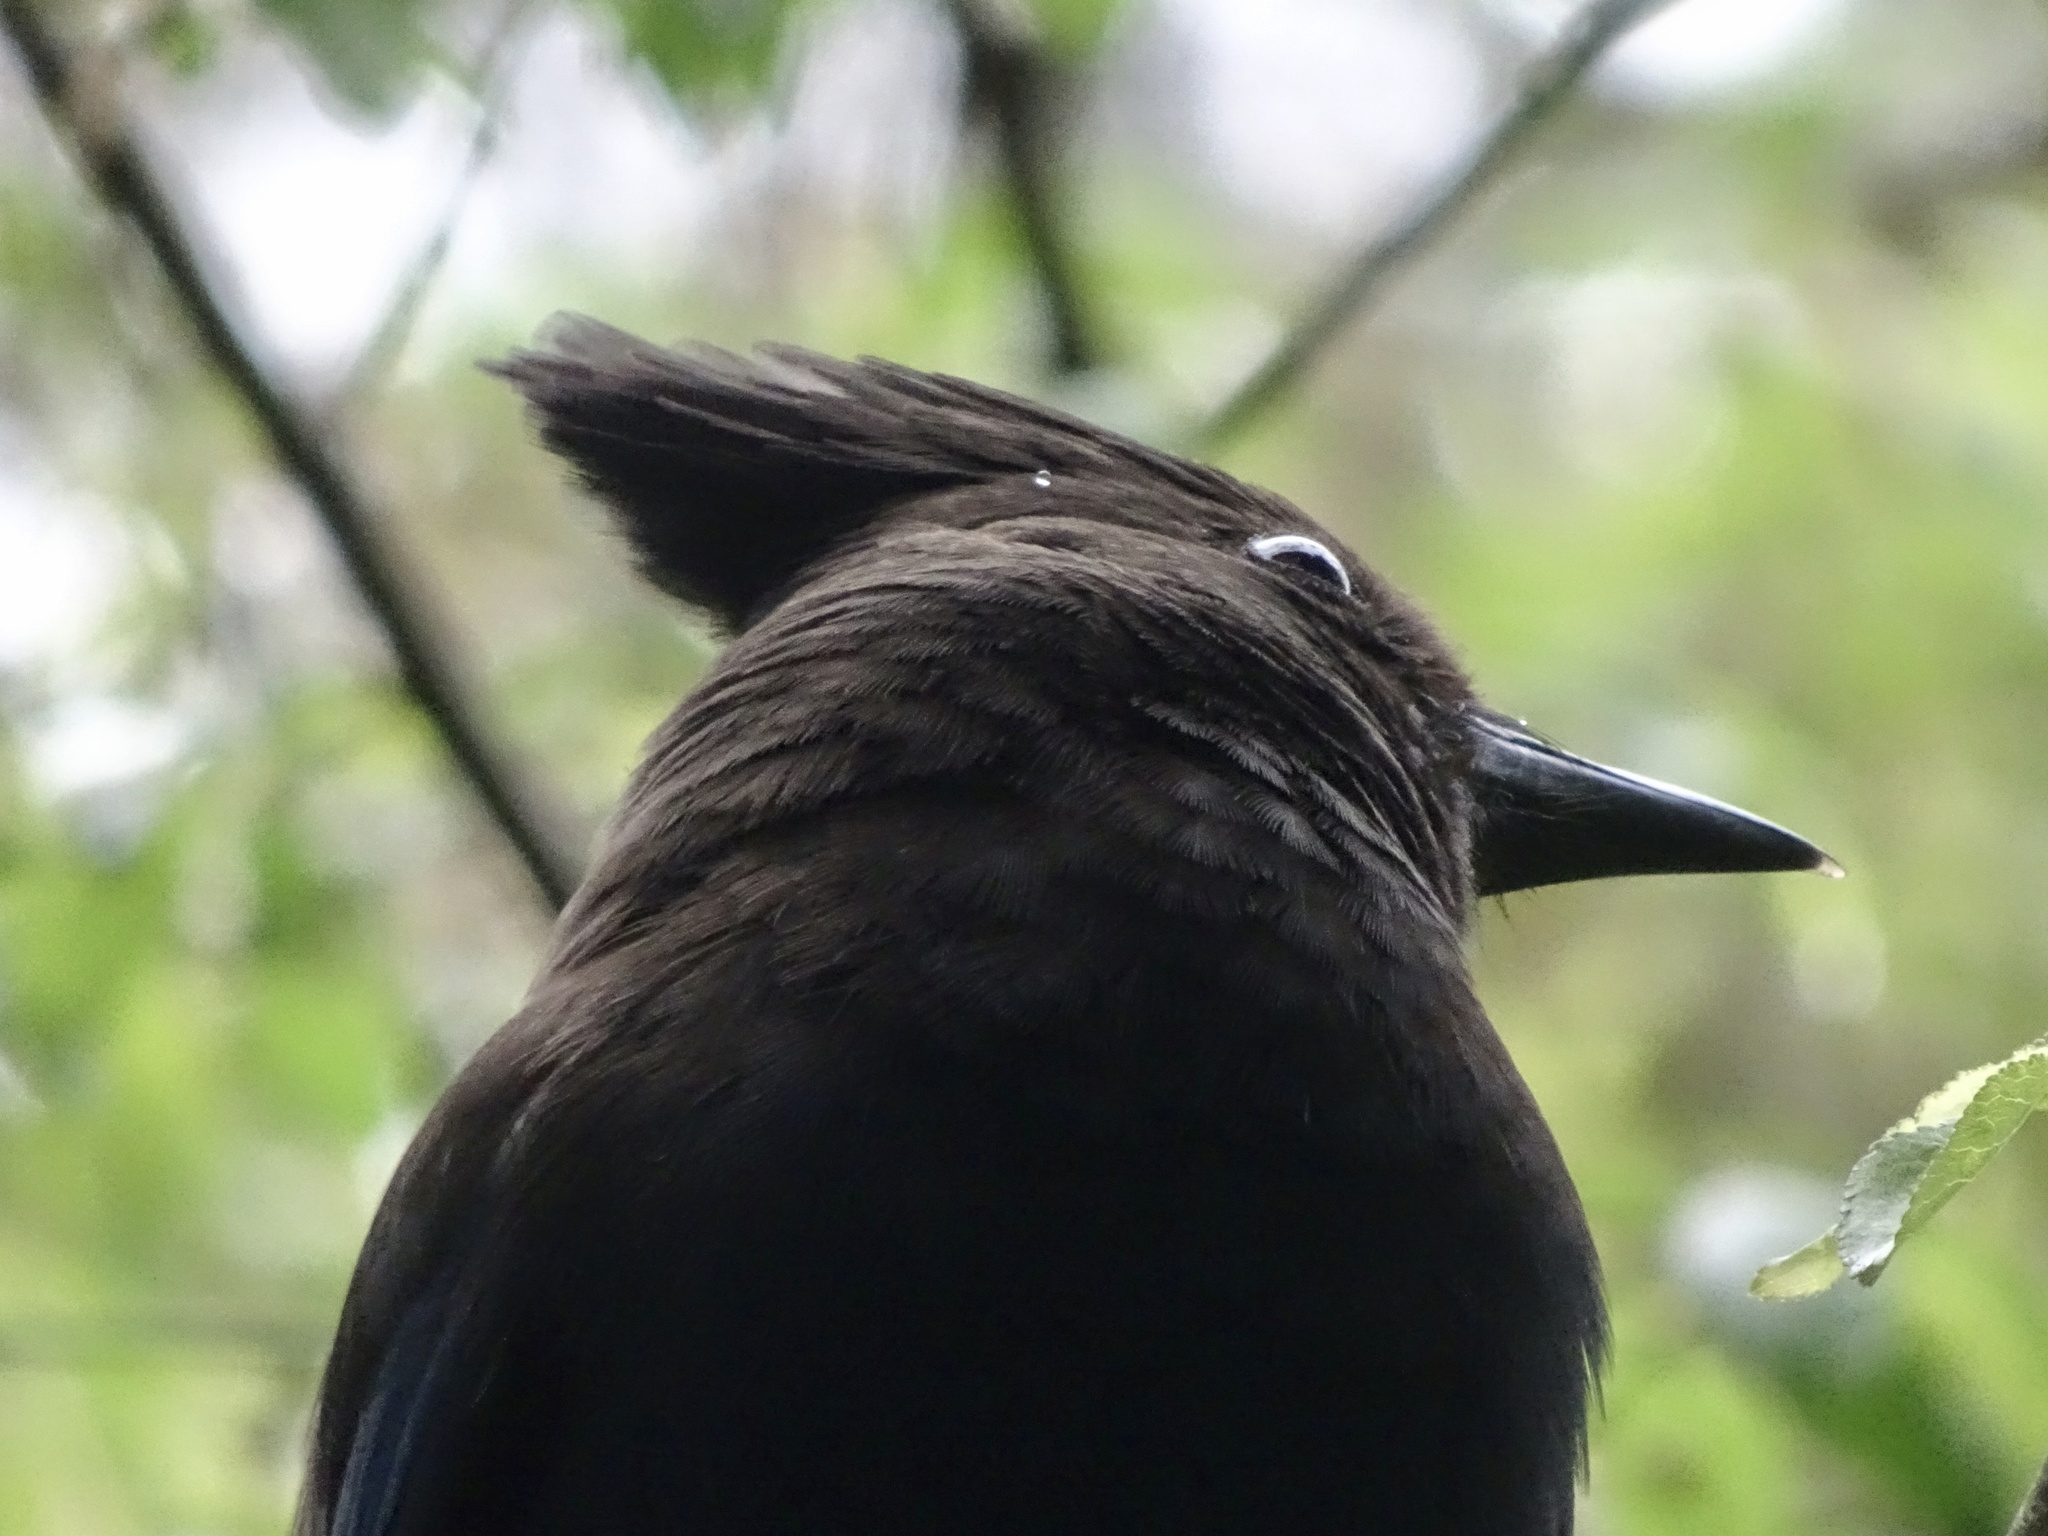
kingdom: Animalia
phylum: Chordata
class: Aves
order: Passeriformes
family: Corvidae
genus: Cyanocitta
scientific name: Cyanocitta stelleri
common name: Steller's jay
